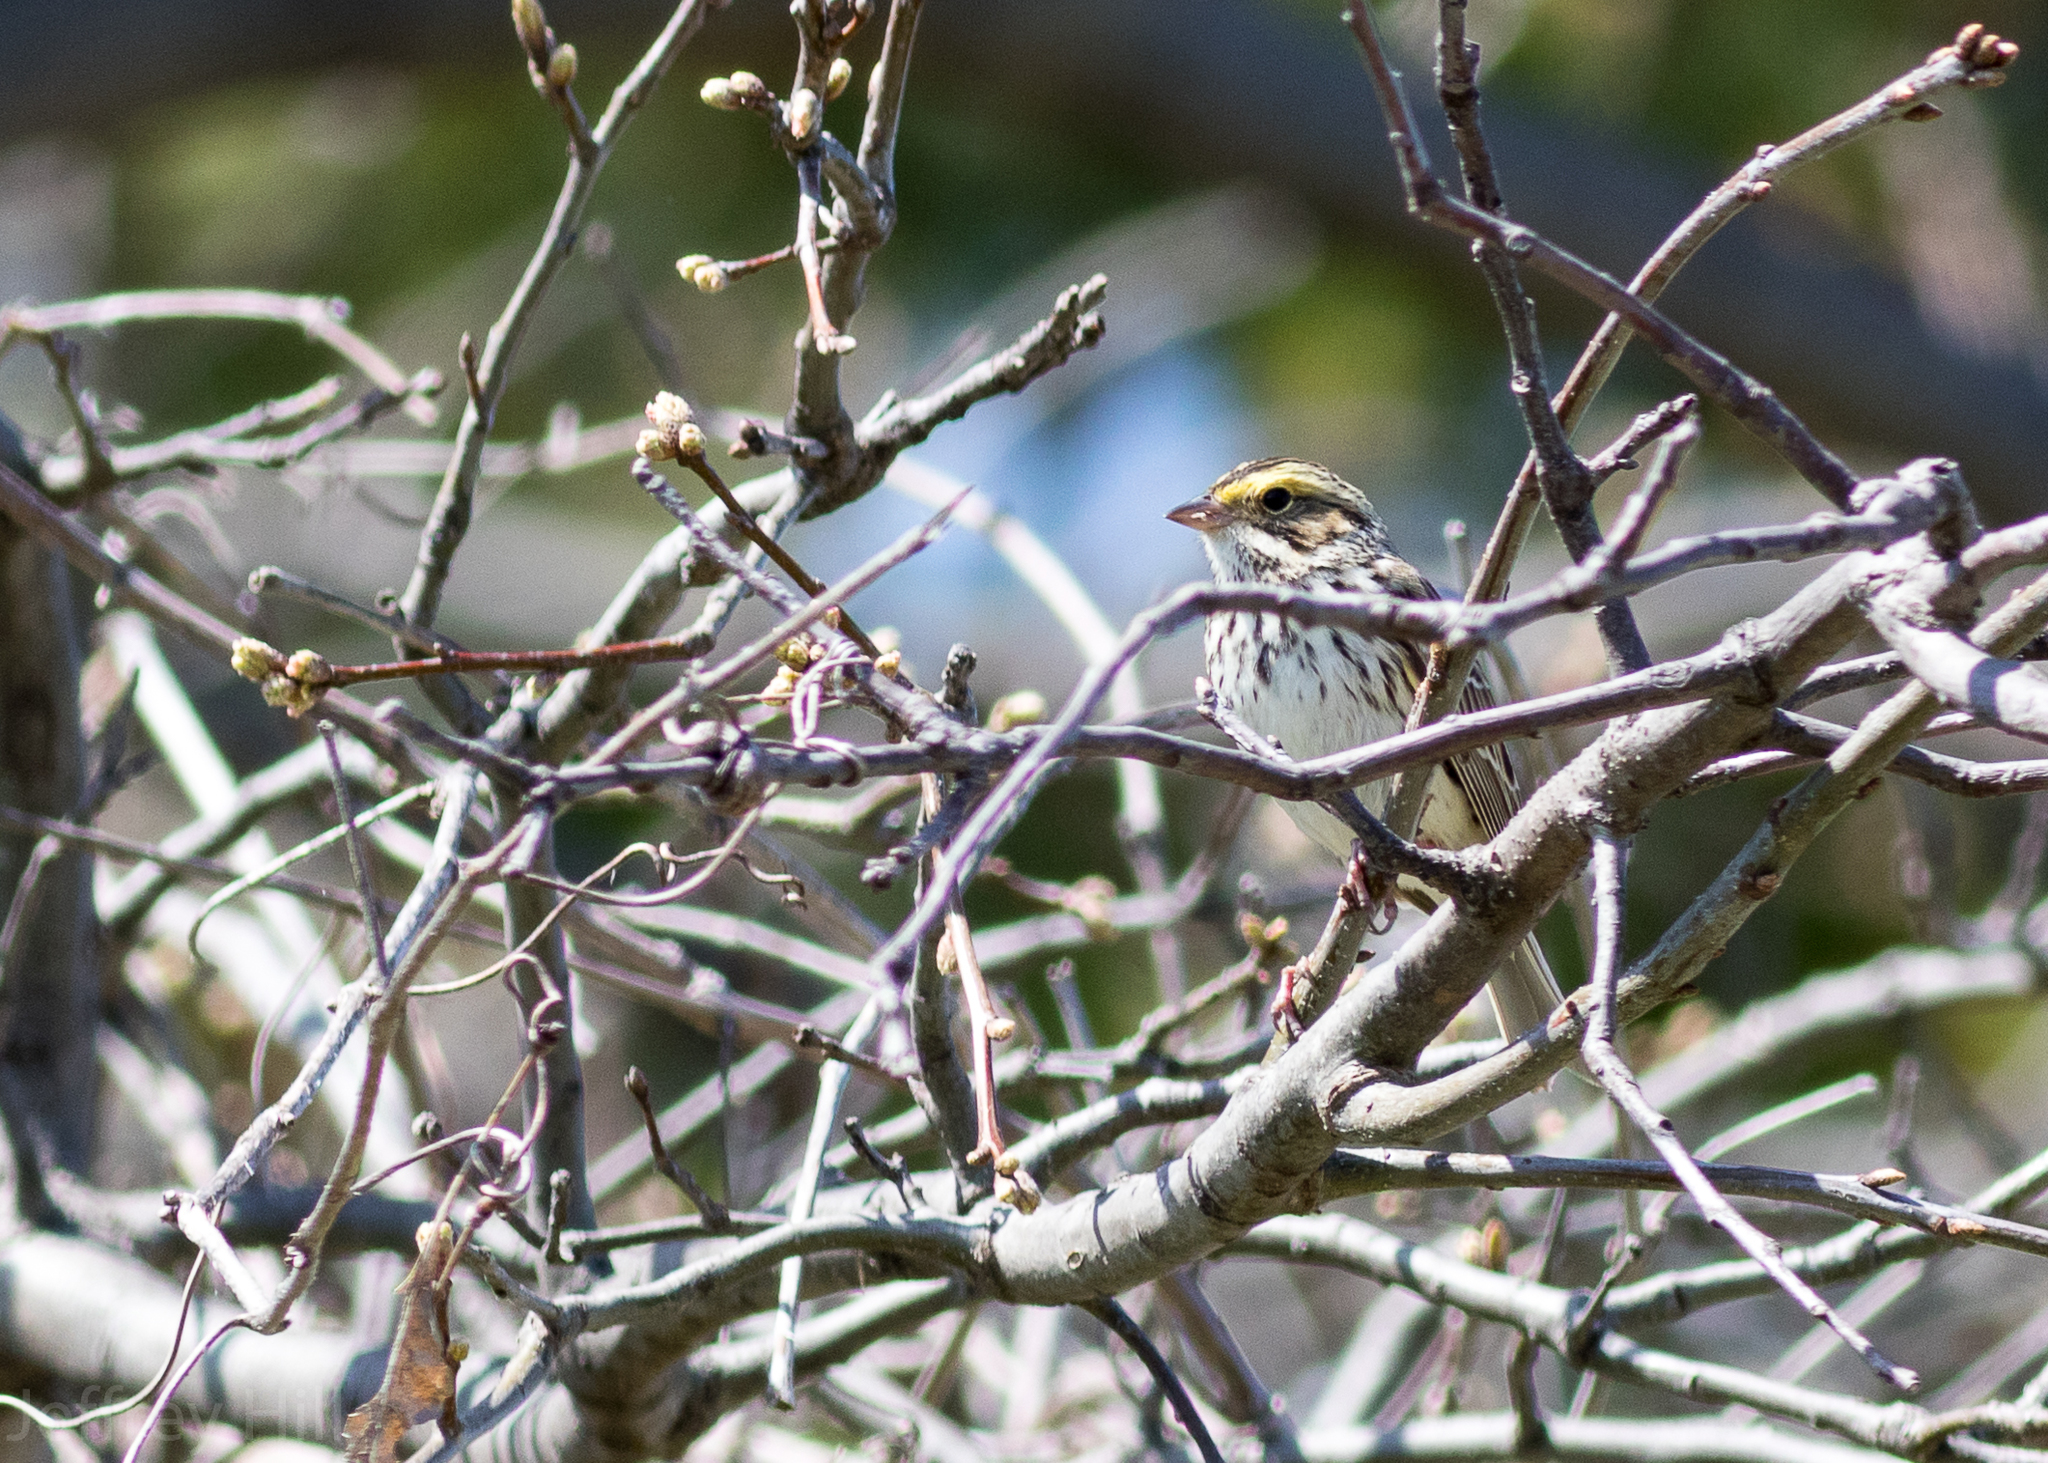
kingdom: Animalia
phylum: Chordata
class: Aves
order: Passeriformes
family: Passerellidae
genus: Passerculus
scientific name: Passerculus sandwichensis
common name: Savannah sparrow
